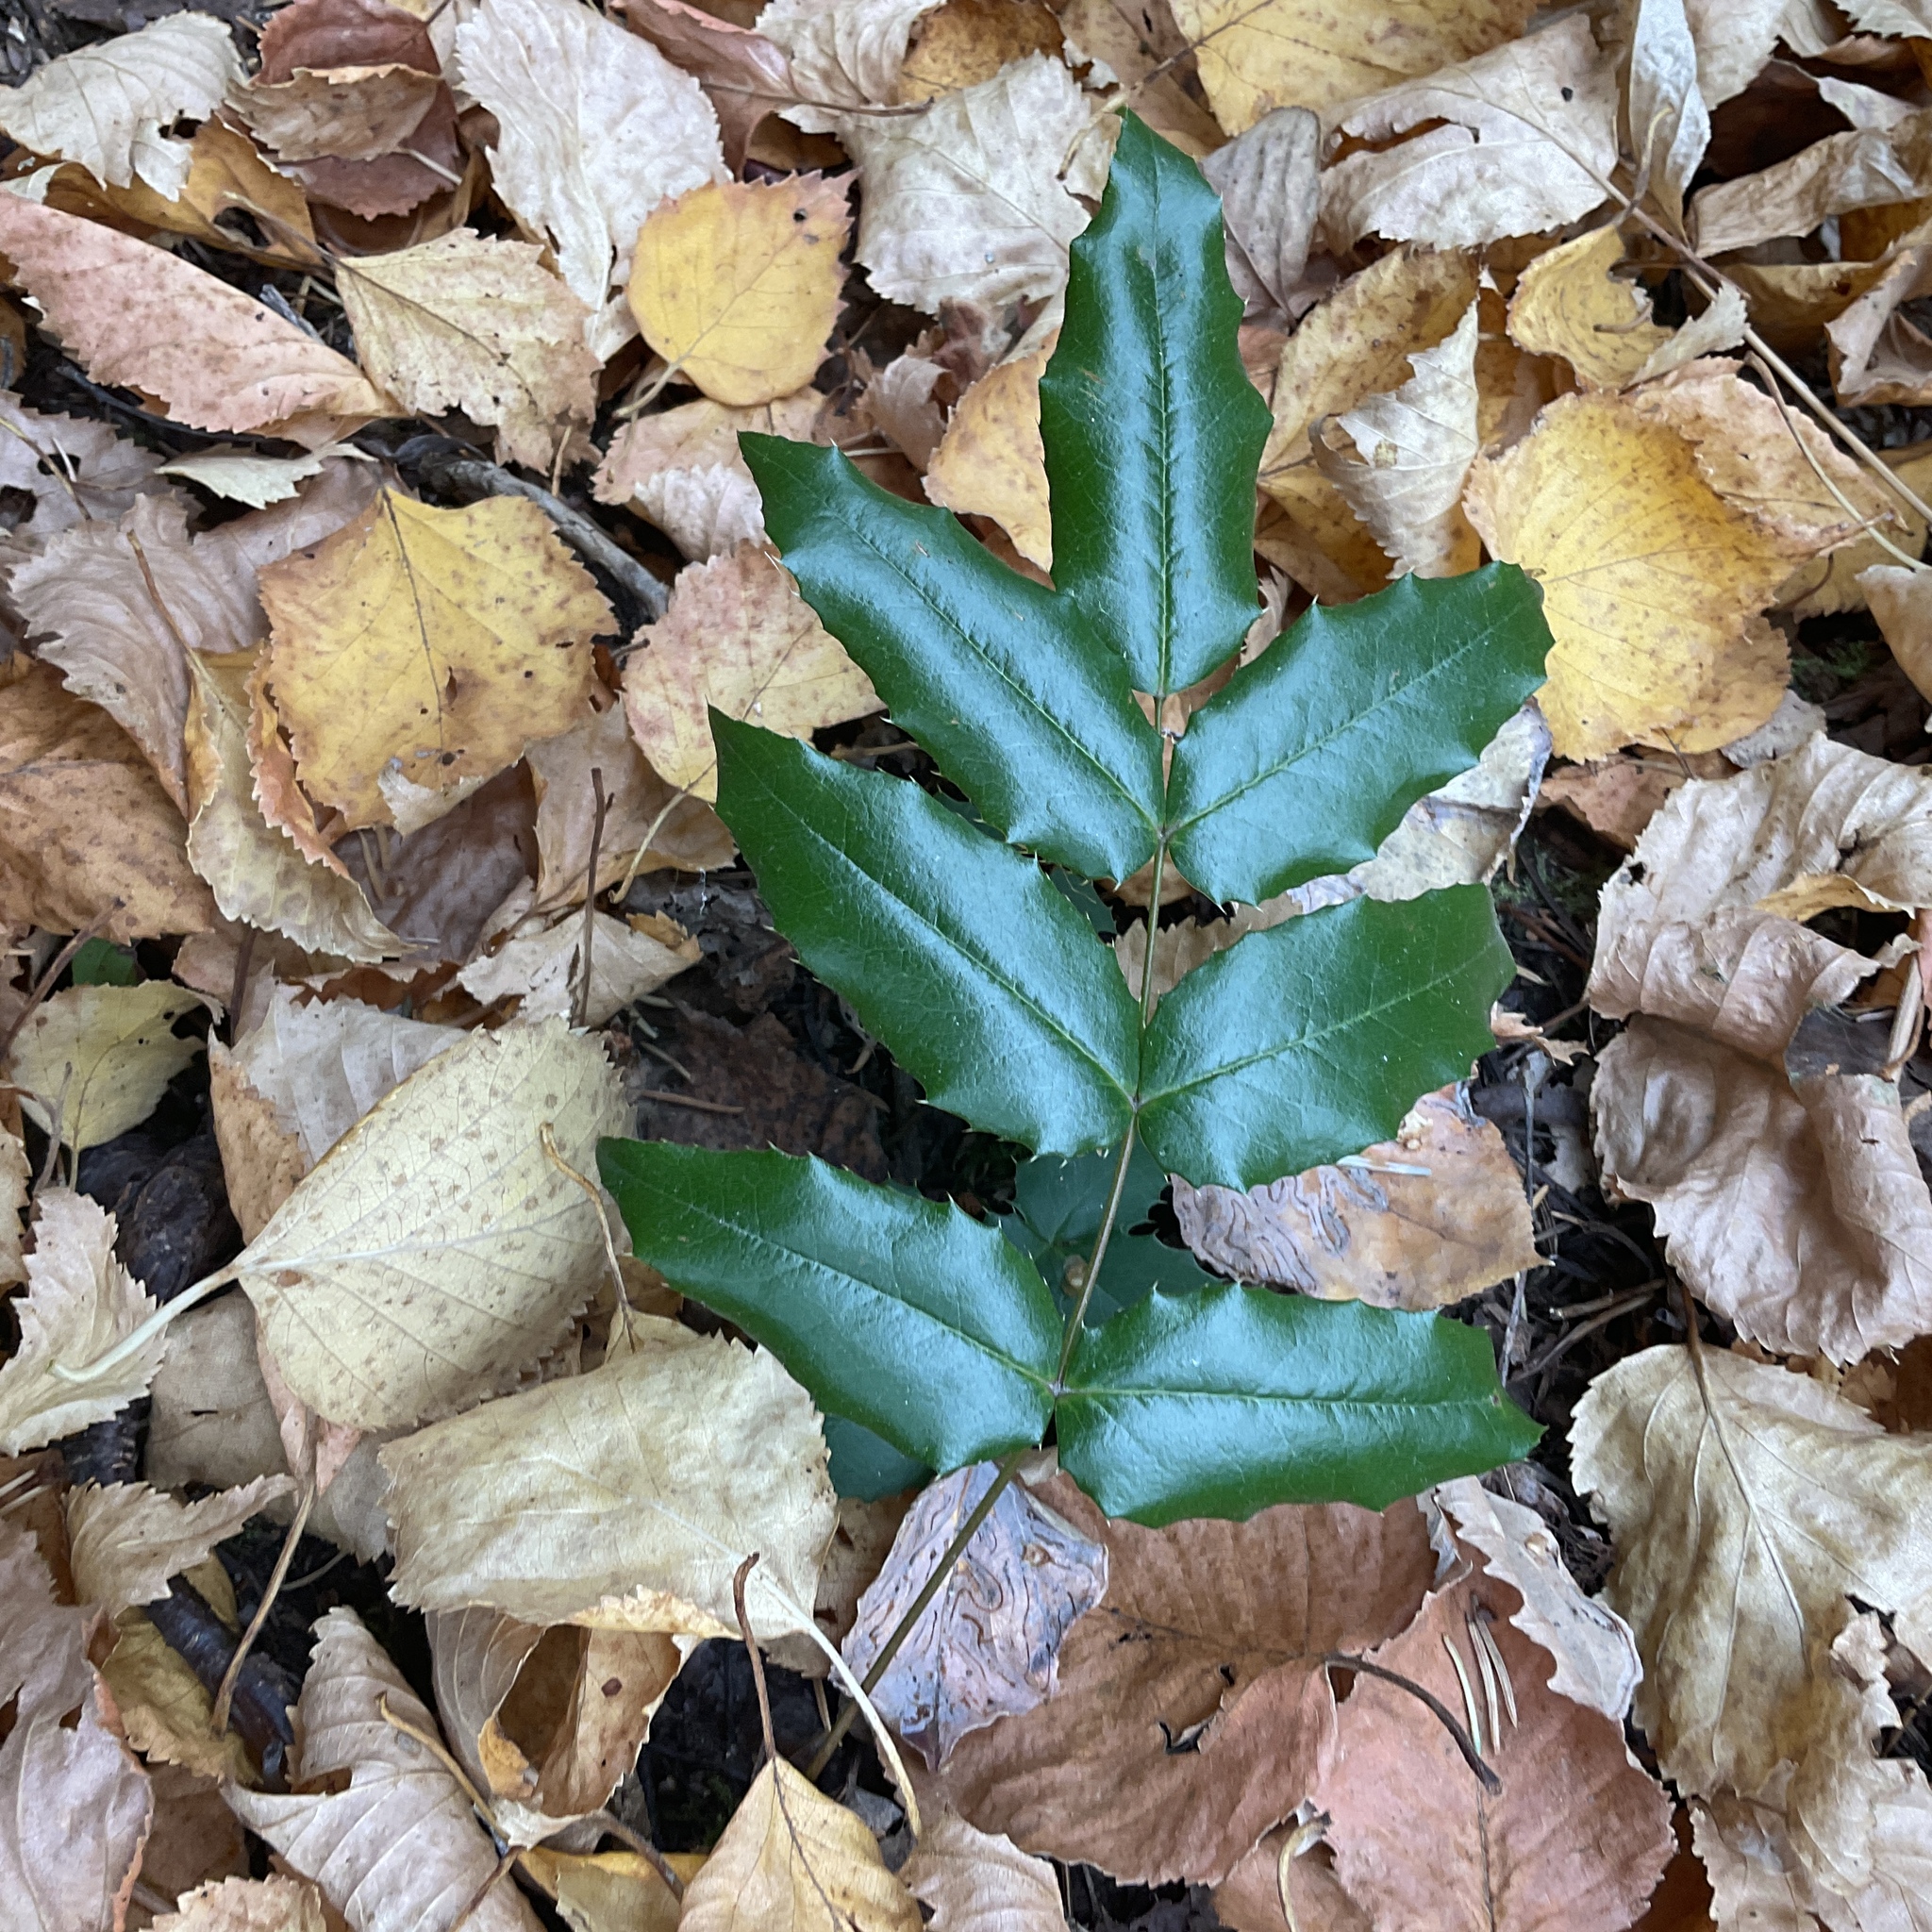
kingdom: Plantae
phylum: Tracheophyta
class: Magnoliopsida
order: Ranunculales
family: Berberidaceae
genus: Mahonia
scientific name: Mahonia aquifolium
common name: Oregon-grape
